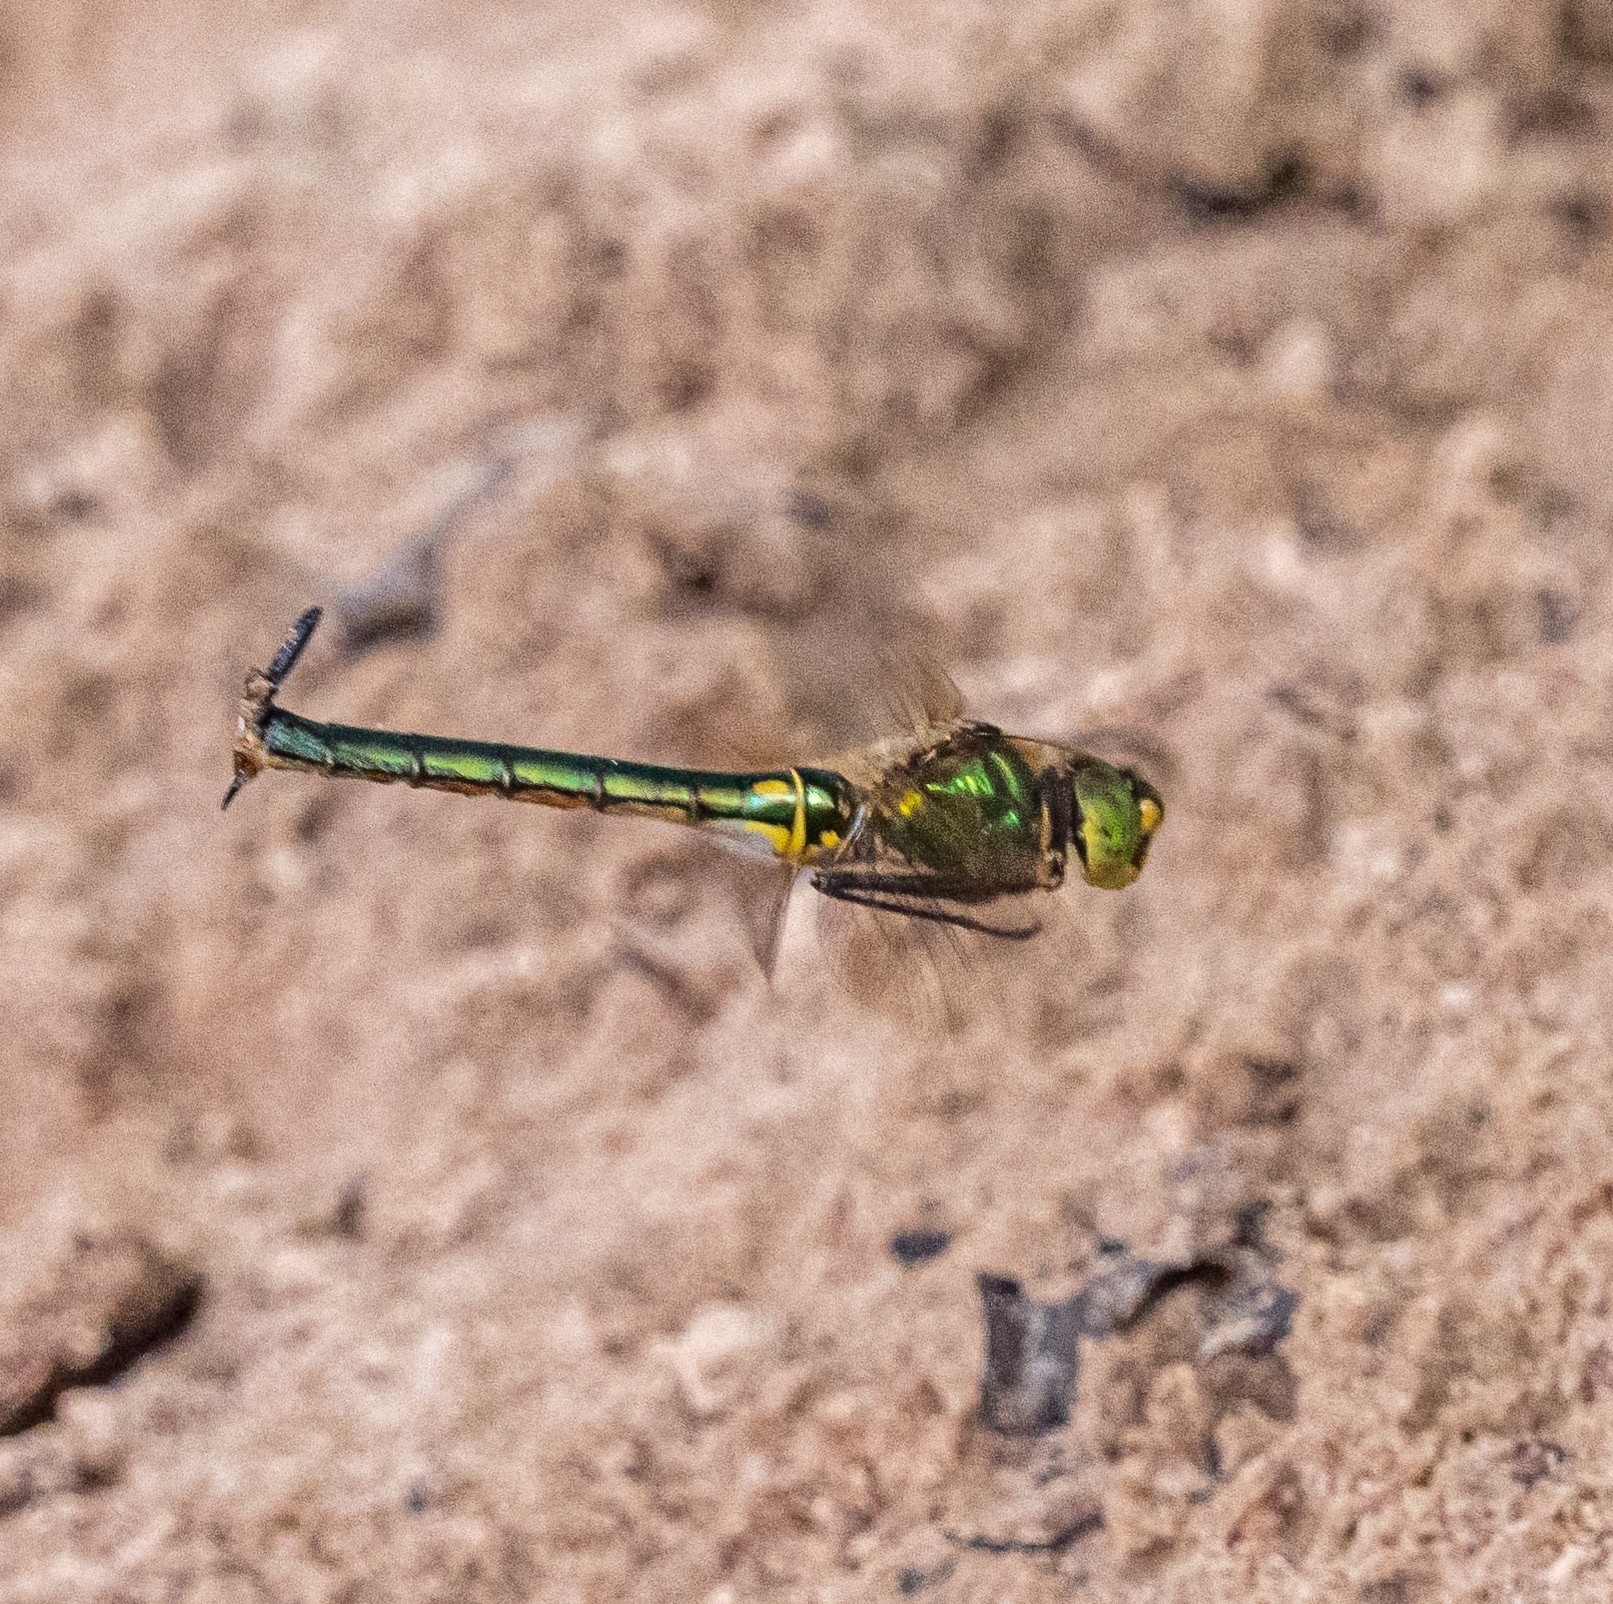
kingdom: Animalia
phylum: Arthropoda
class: Insecta
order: Odonata
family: Corduliidae
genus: Somatochlora
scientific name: Somatochlora metallica
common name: Brilliant emerald
